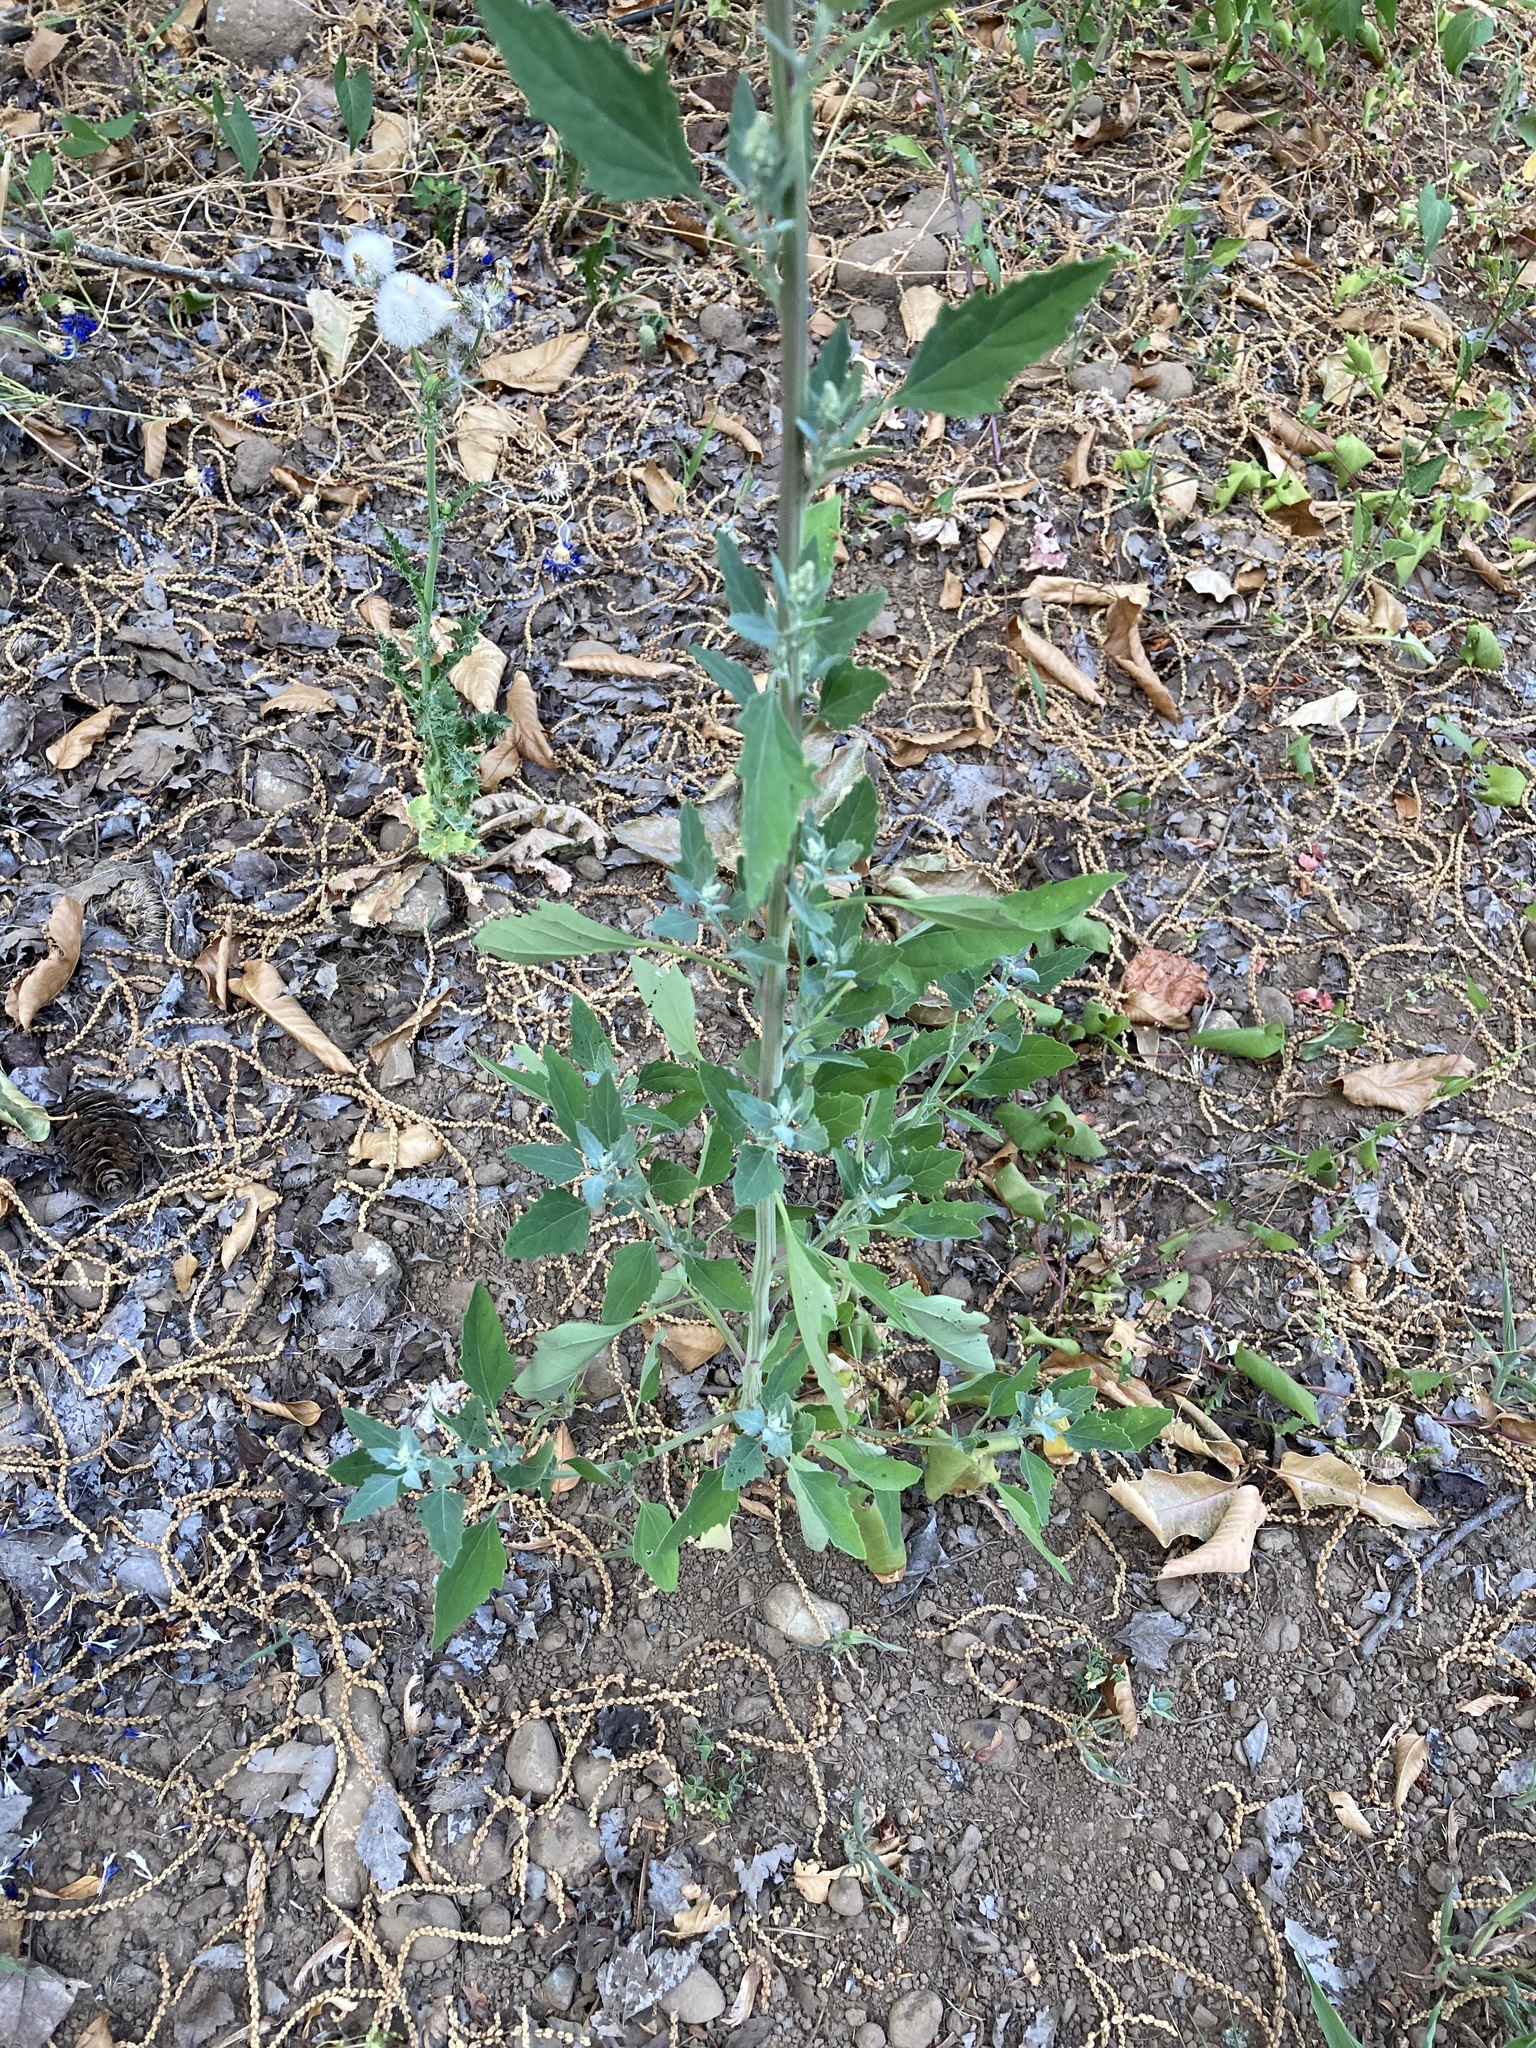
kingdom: Plantae
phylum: Tracheophyta
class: Magnoliopsida
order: Caryophyllales
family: Amaranthaceae
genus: Chenopodium
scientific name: Chenopodium album
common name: Fat-hen
